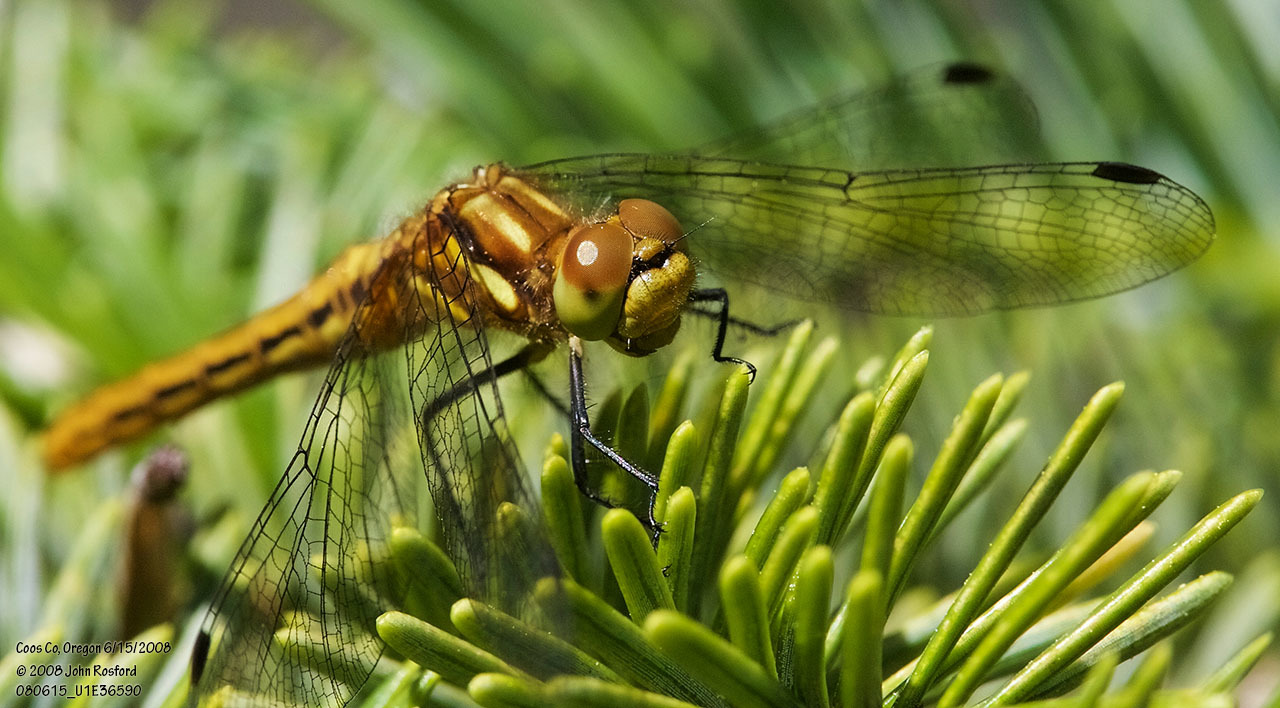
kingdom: Animalia
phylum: Arthropoda
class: Insecta
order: Odonata
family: Libellulidae
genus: Sympetrum
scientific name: Sympetrum pallipes
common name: Striped meadowhawk
